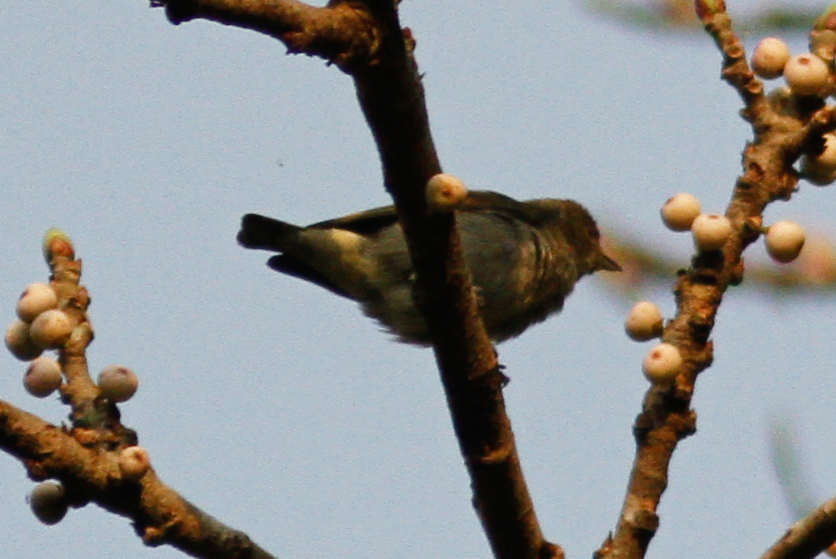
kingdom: Animalia
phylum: Chordata
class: Aves
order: Passeriformes
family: Dicaeidae
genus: Dicaeum
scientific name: Dicaeum agile
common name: Thick-billed flowerpecker
